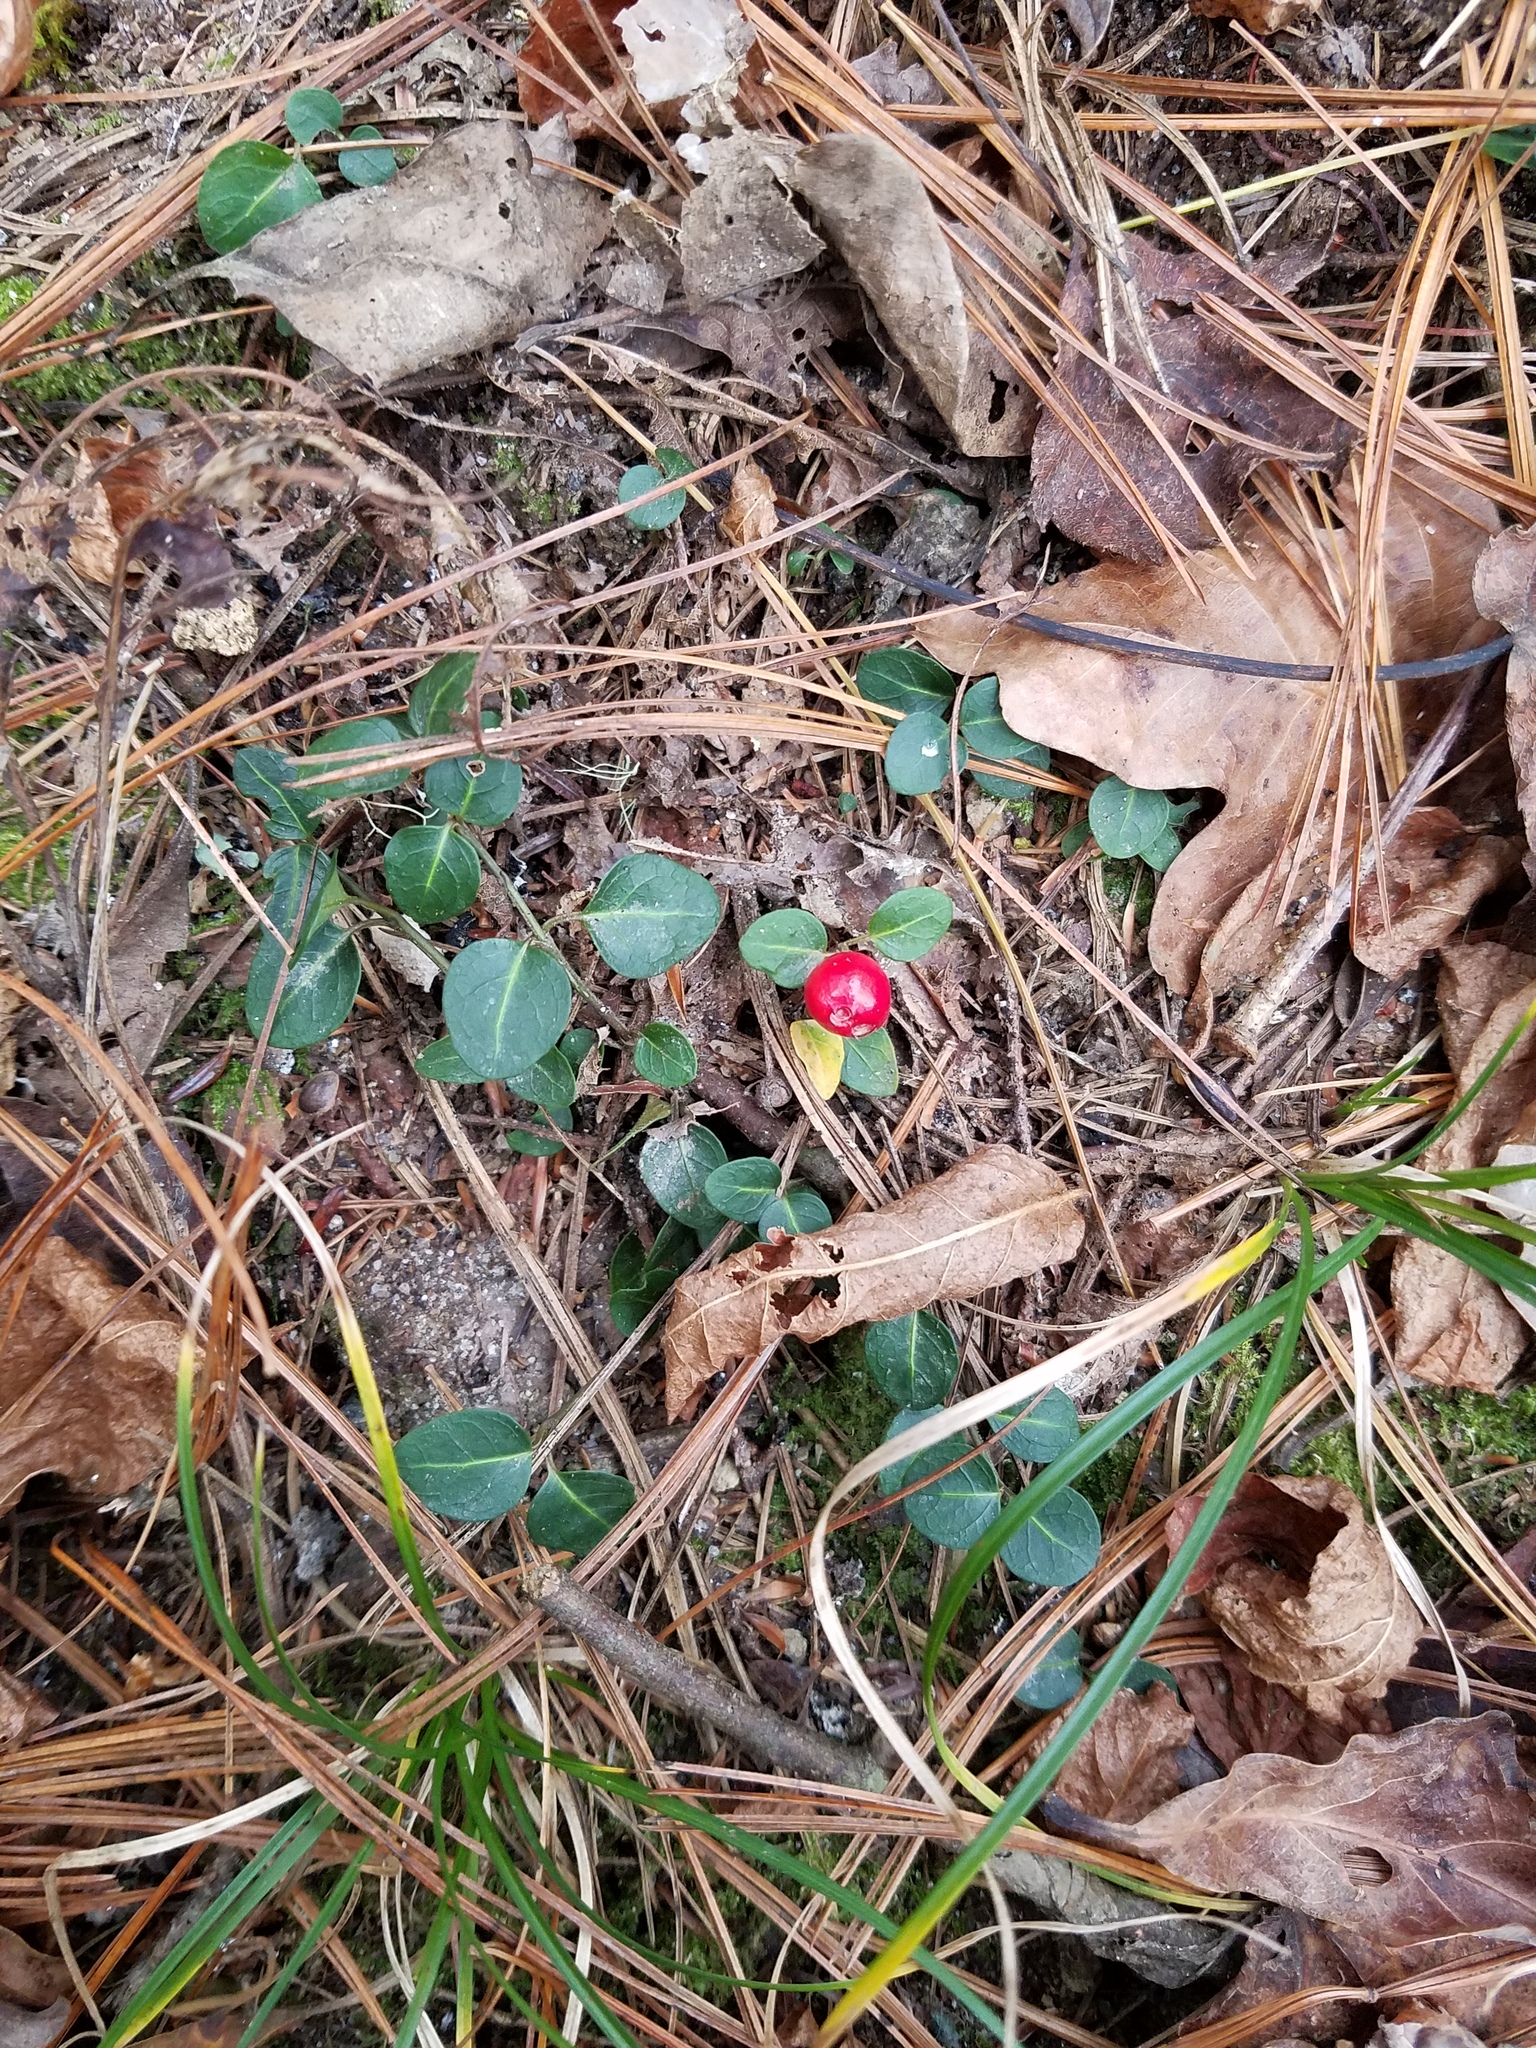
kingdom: Plantae
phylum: Tracheophyta
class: Magnoliopsida
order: Gentianales
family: Rubiaceae
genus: Mitchella
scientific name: Mitchella repens
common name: Partridge-berry
